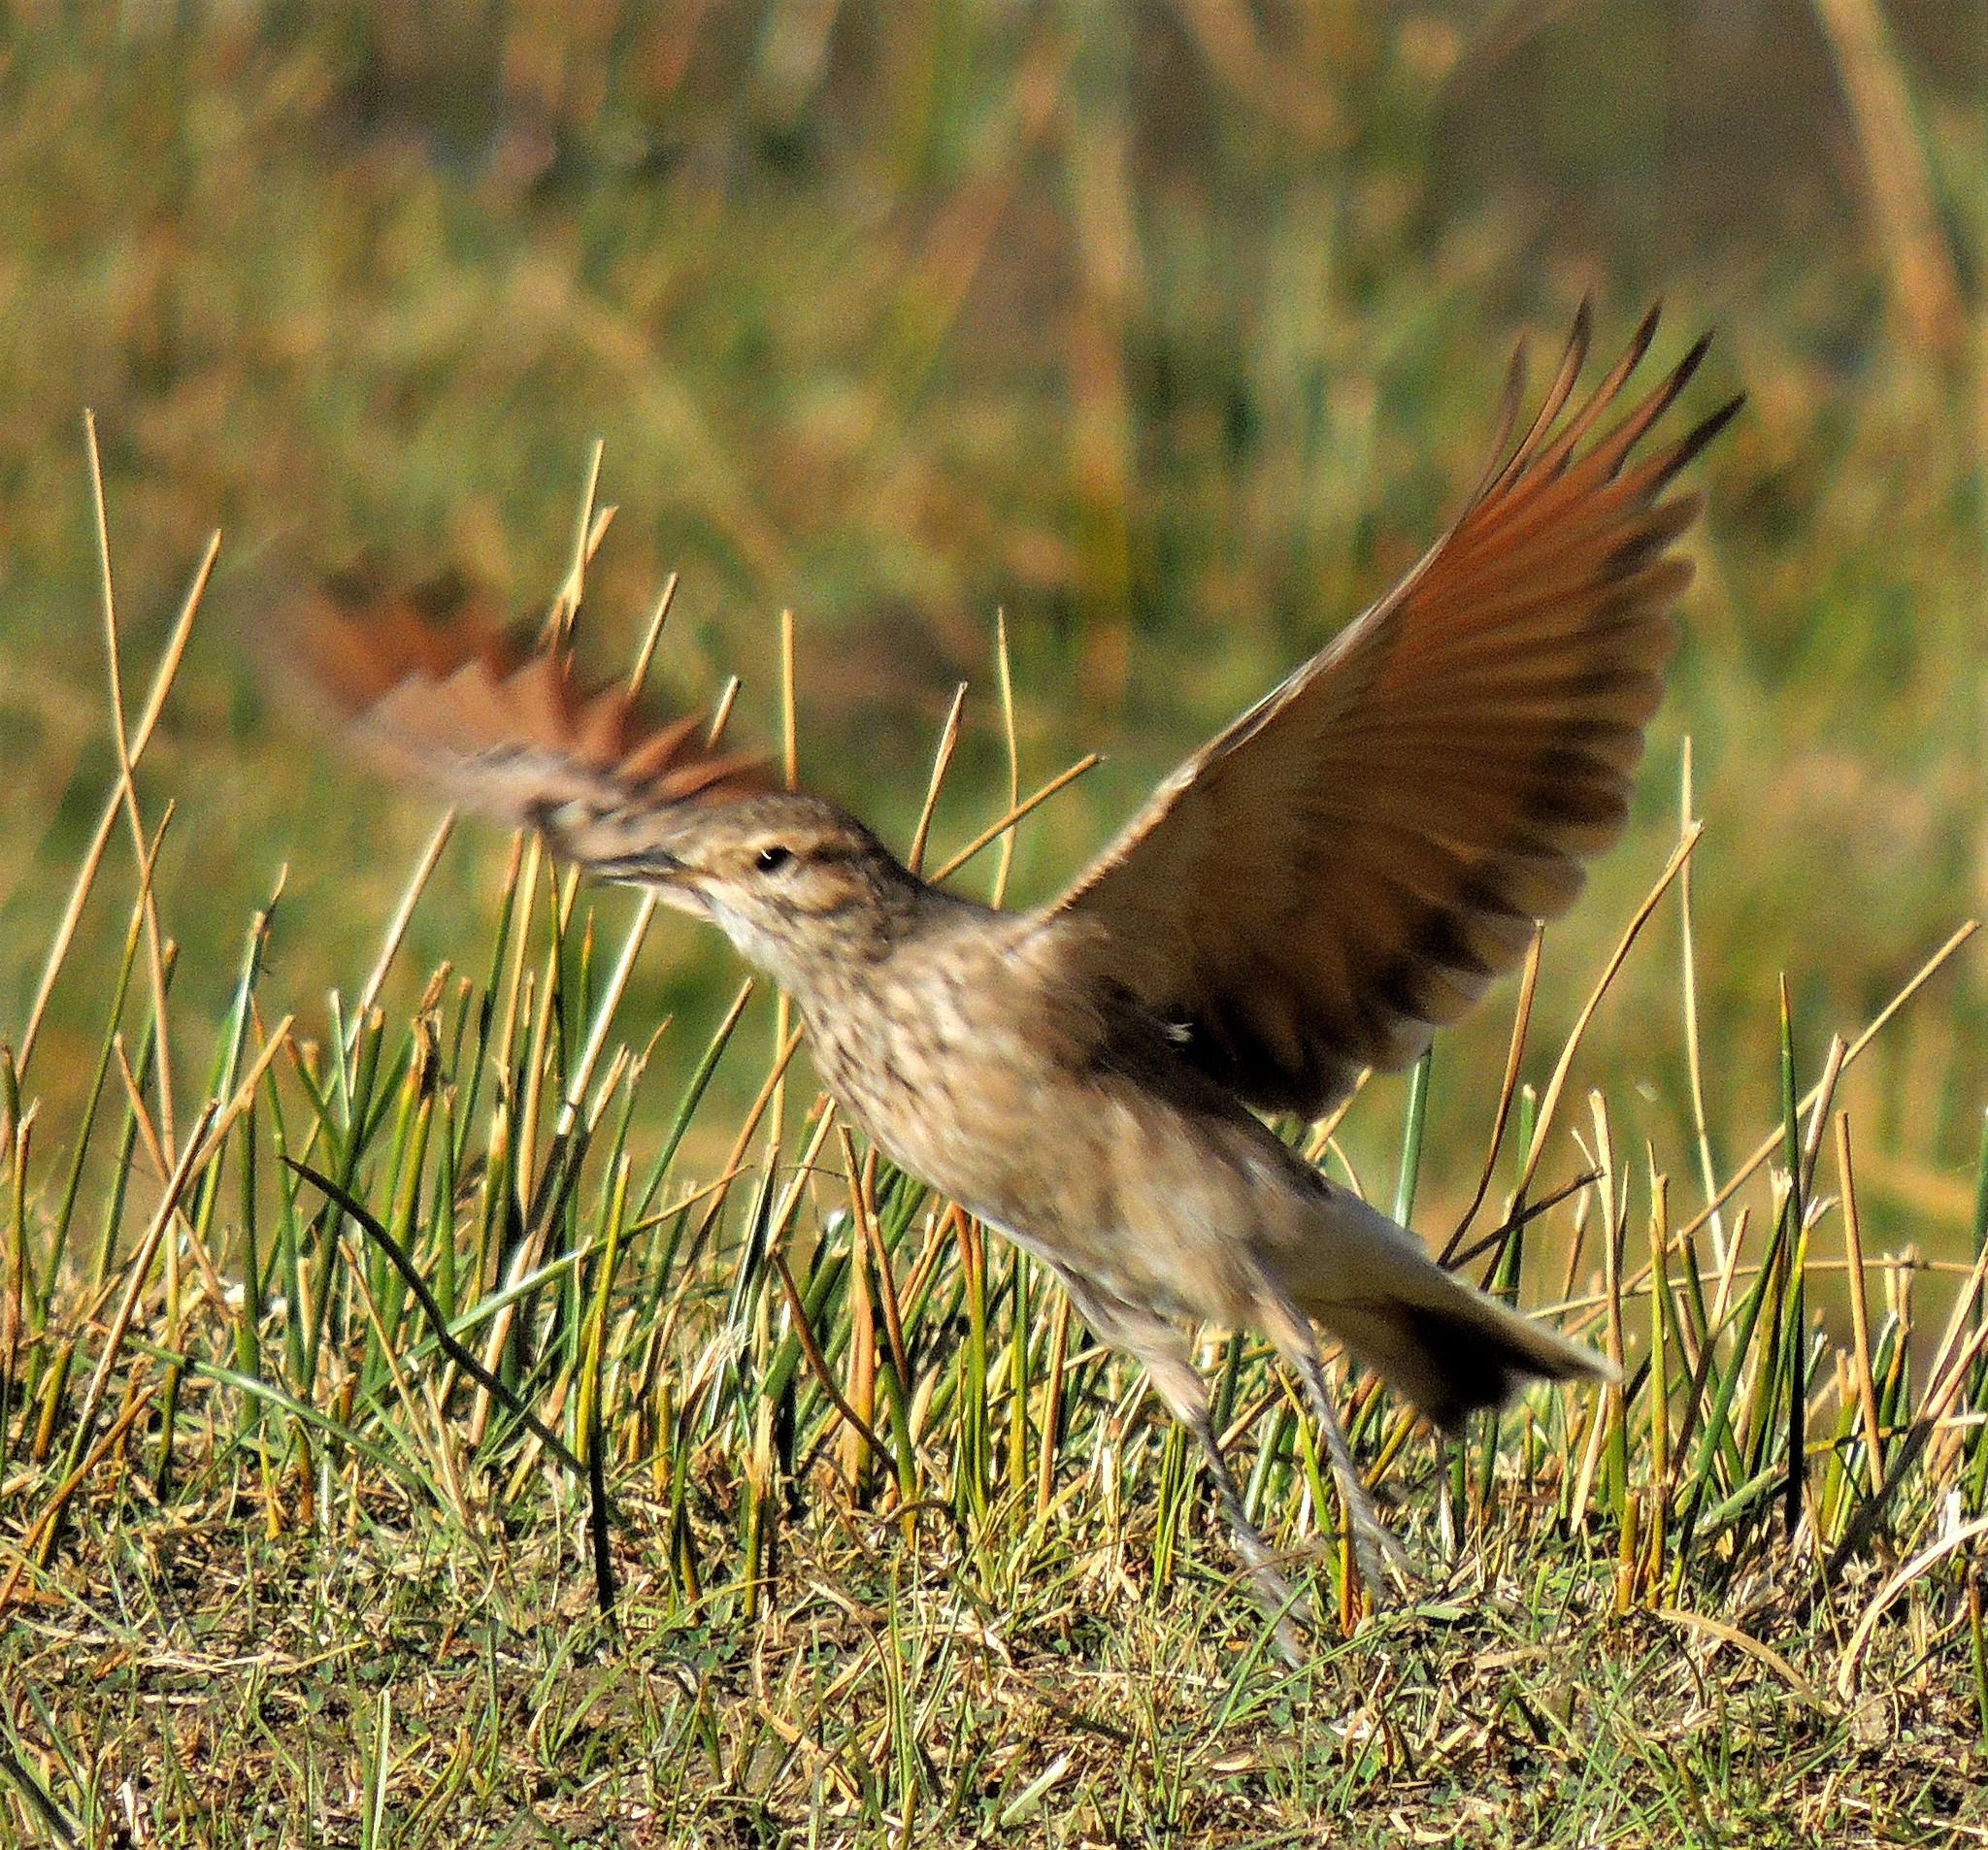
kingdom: Animalia
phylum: Chordata
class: Aves
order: Passeriformes
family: Furnariidae
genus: Geositta
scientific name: Geositta cunicularia
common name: Common miner
